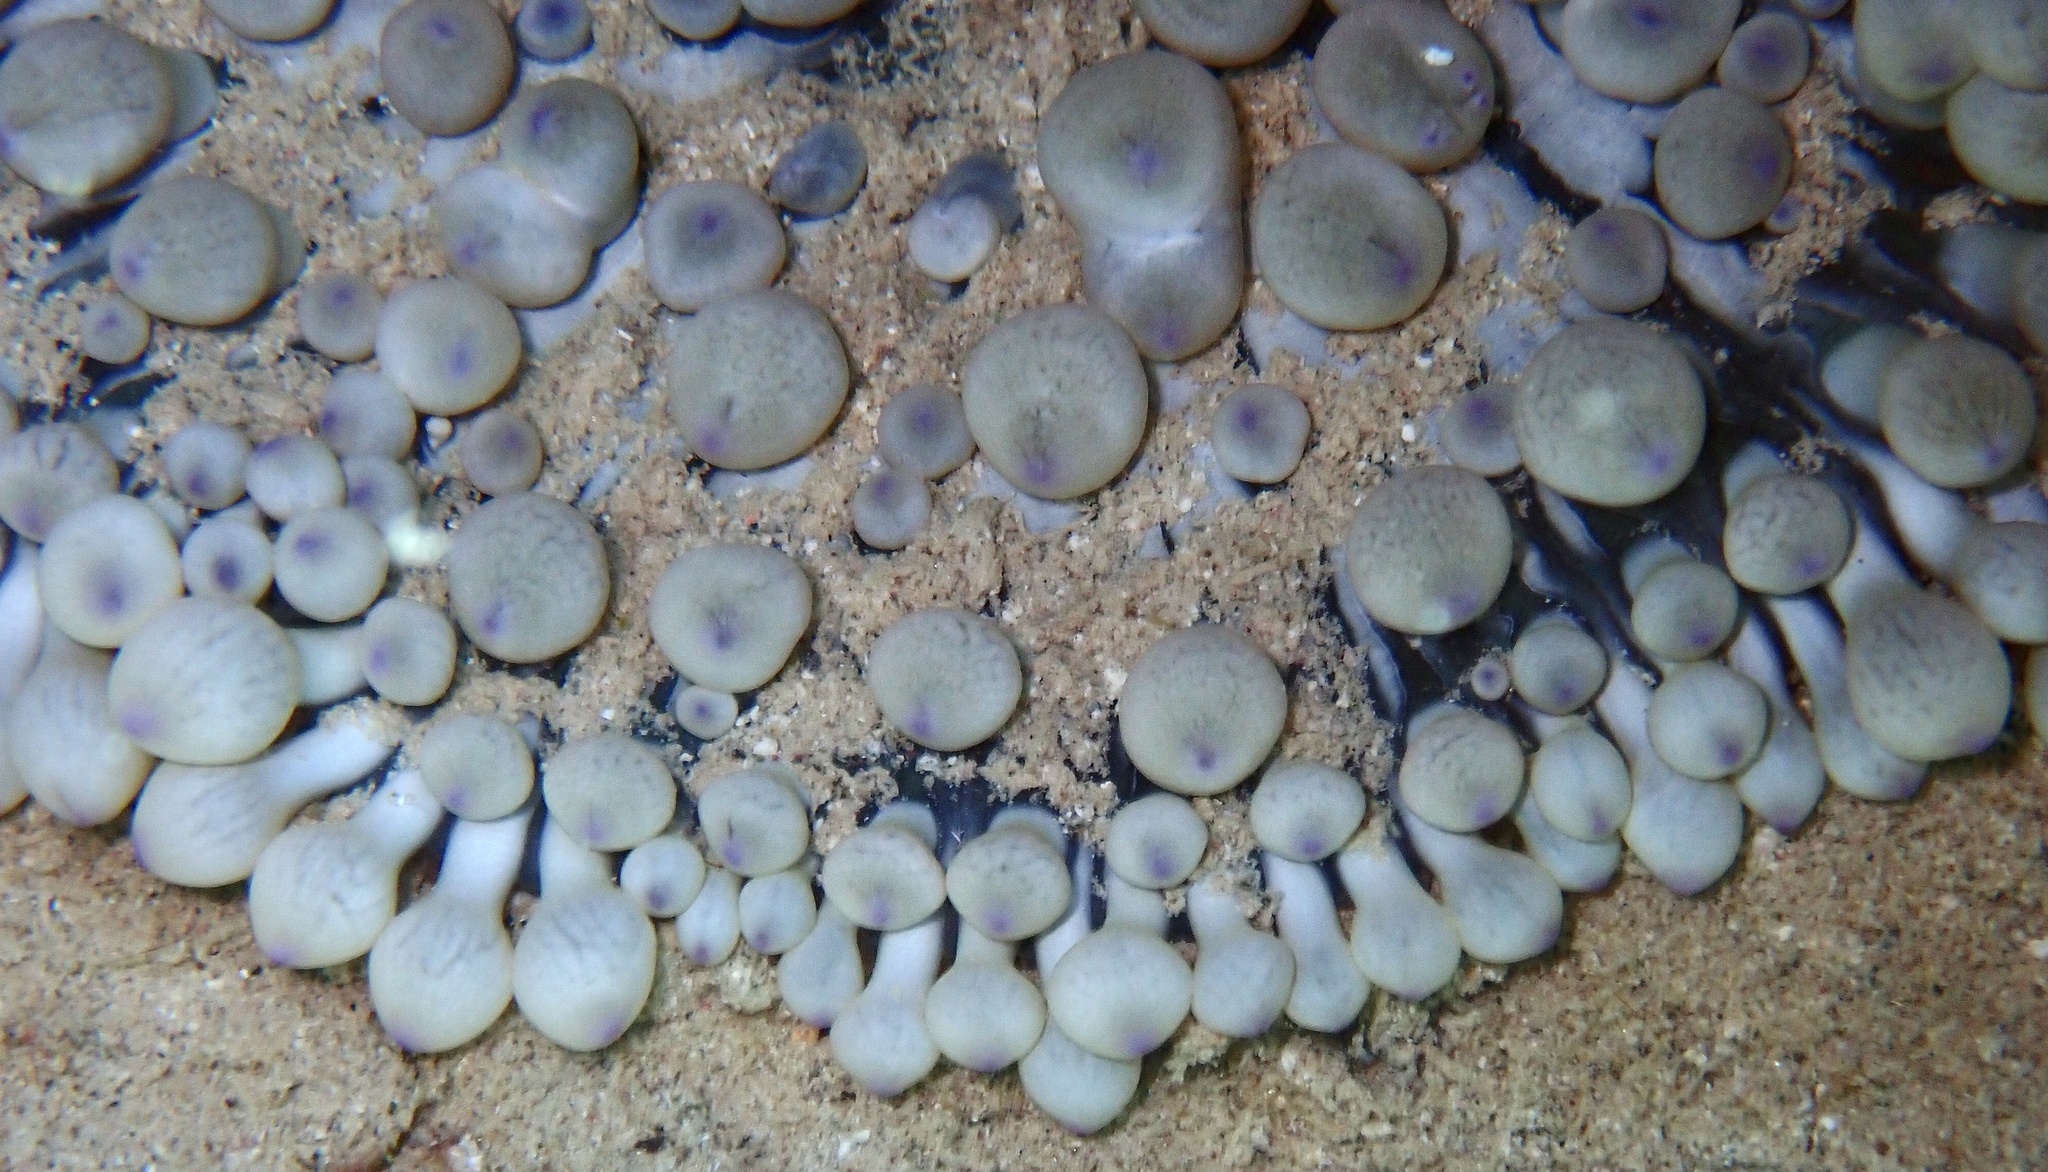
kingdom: Animalia
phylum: Cnidaria
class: Anthozoa
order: Actiniaria
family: Stichodactylidae
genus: Radianthus
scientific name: Radianthus crispa
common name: Leather anemone
